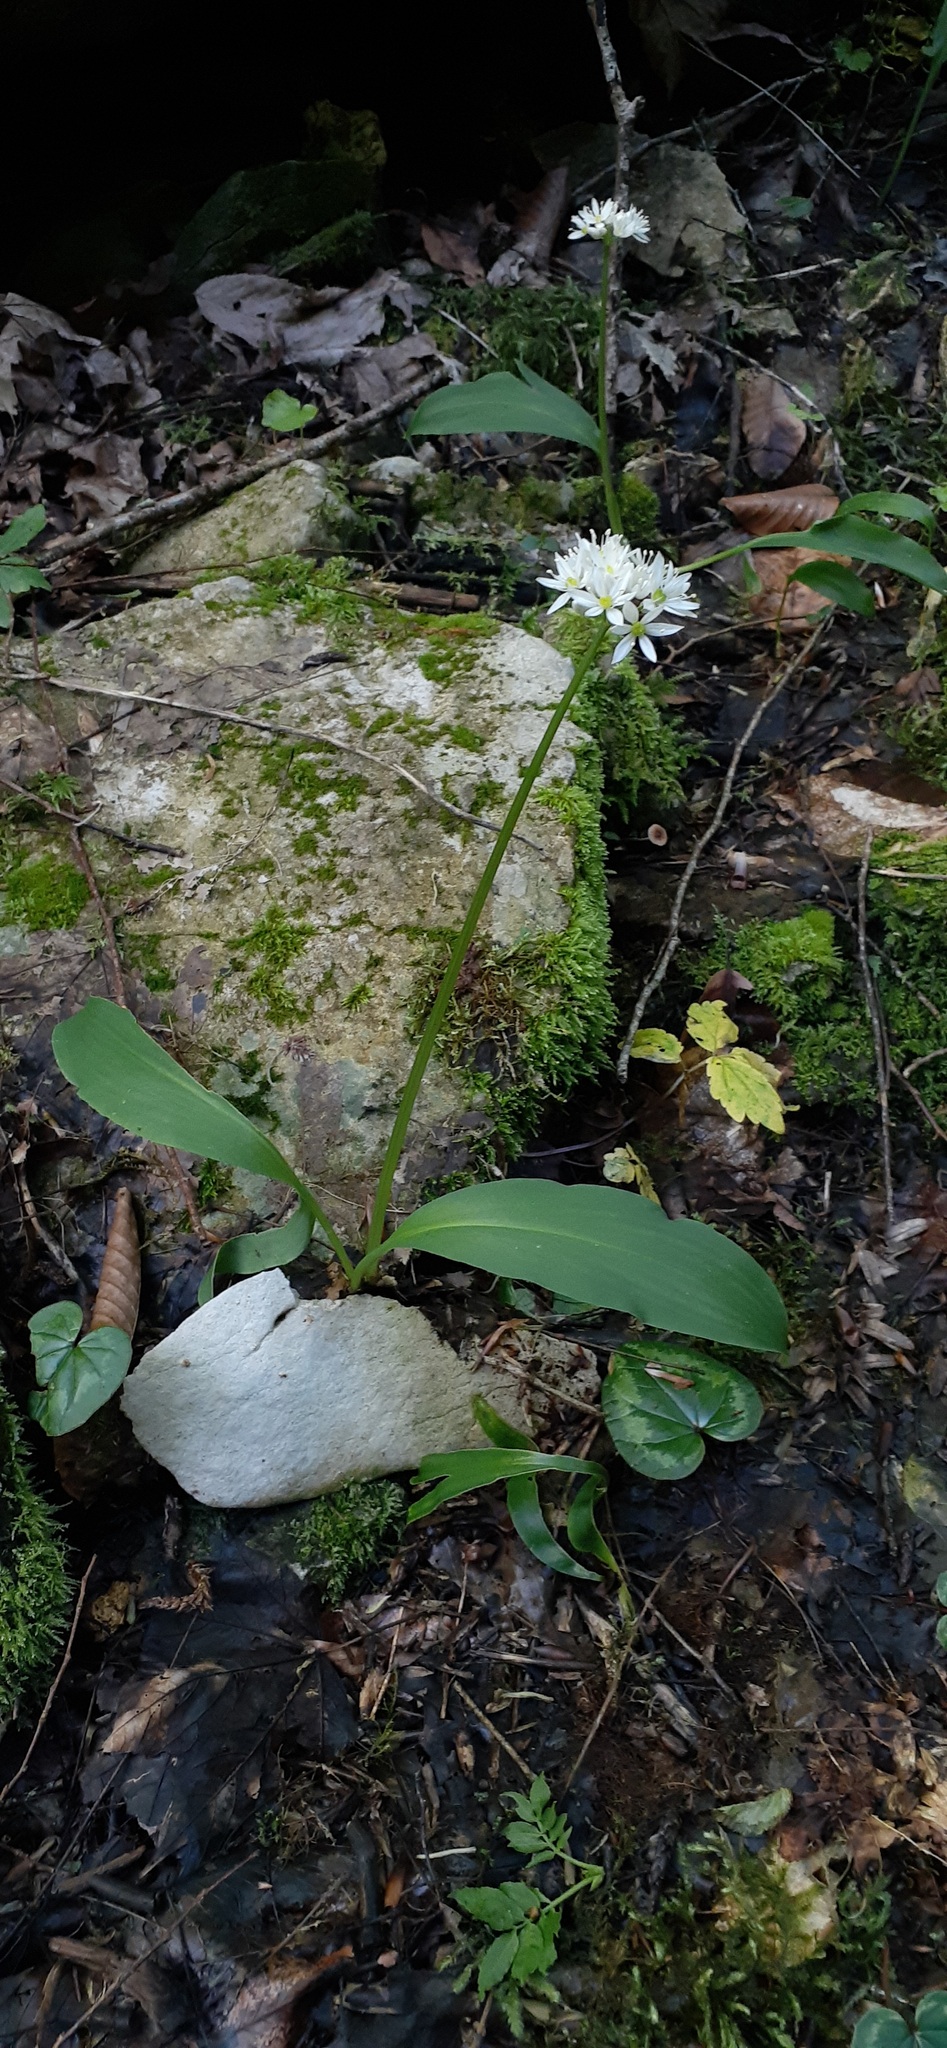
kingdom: Plantae
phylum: Tracheophyta
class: Liliopsida
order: Asparagales
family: Amaryllidaceae
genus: Allium
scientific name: Allium ursinum
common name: Ramsons
